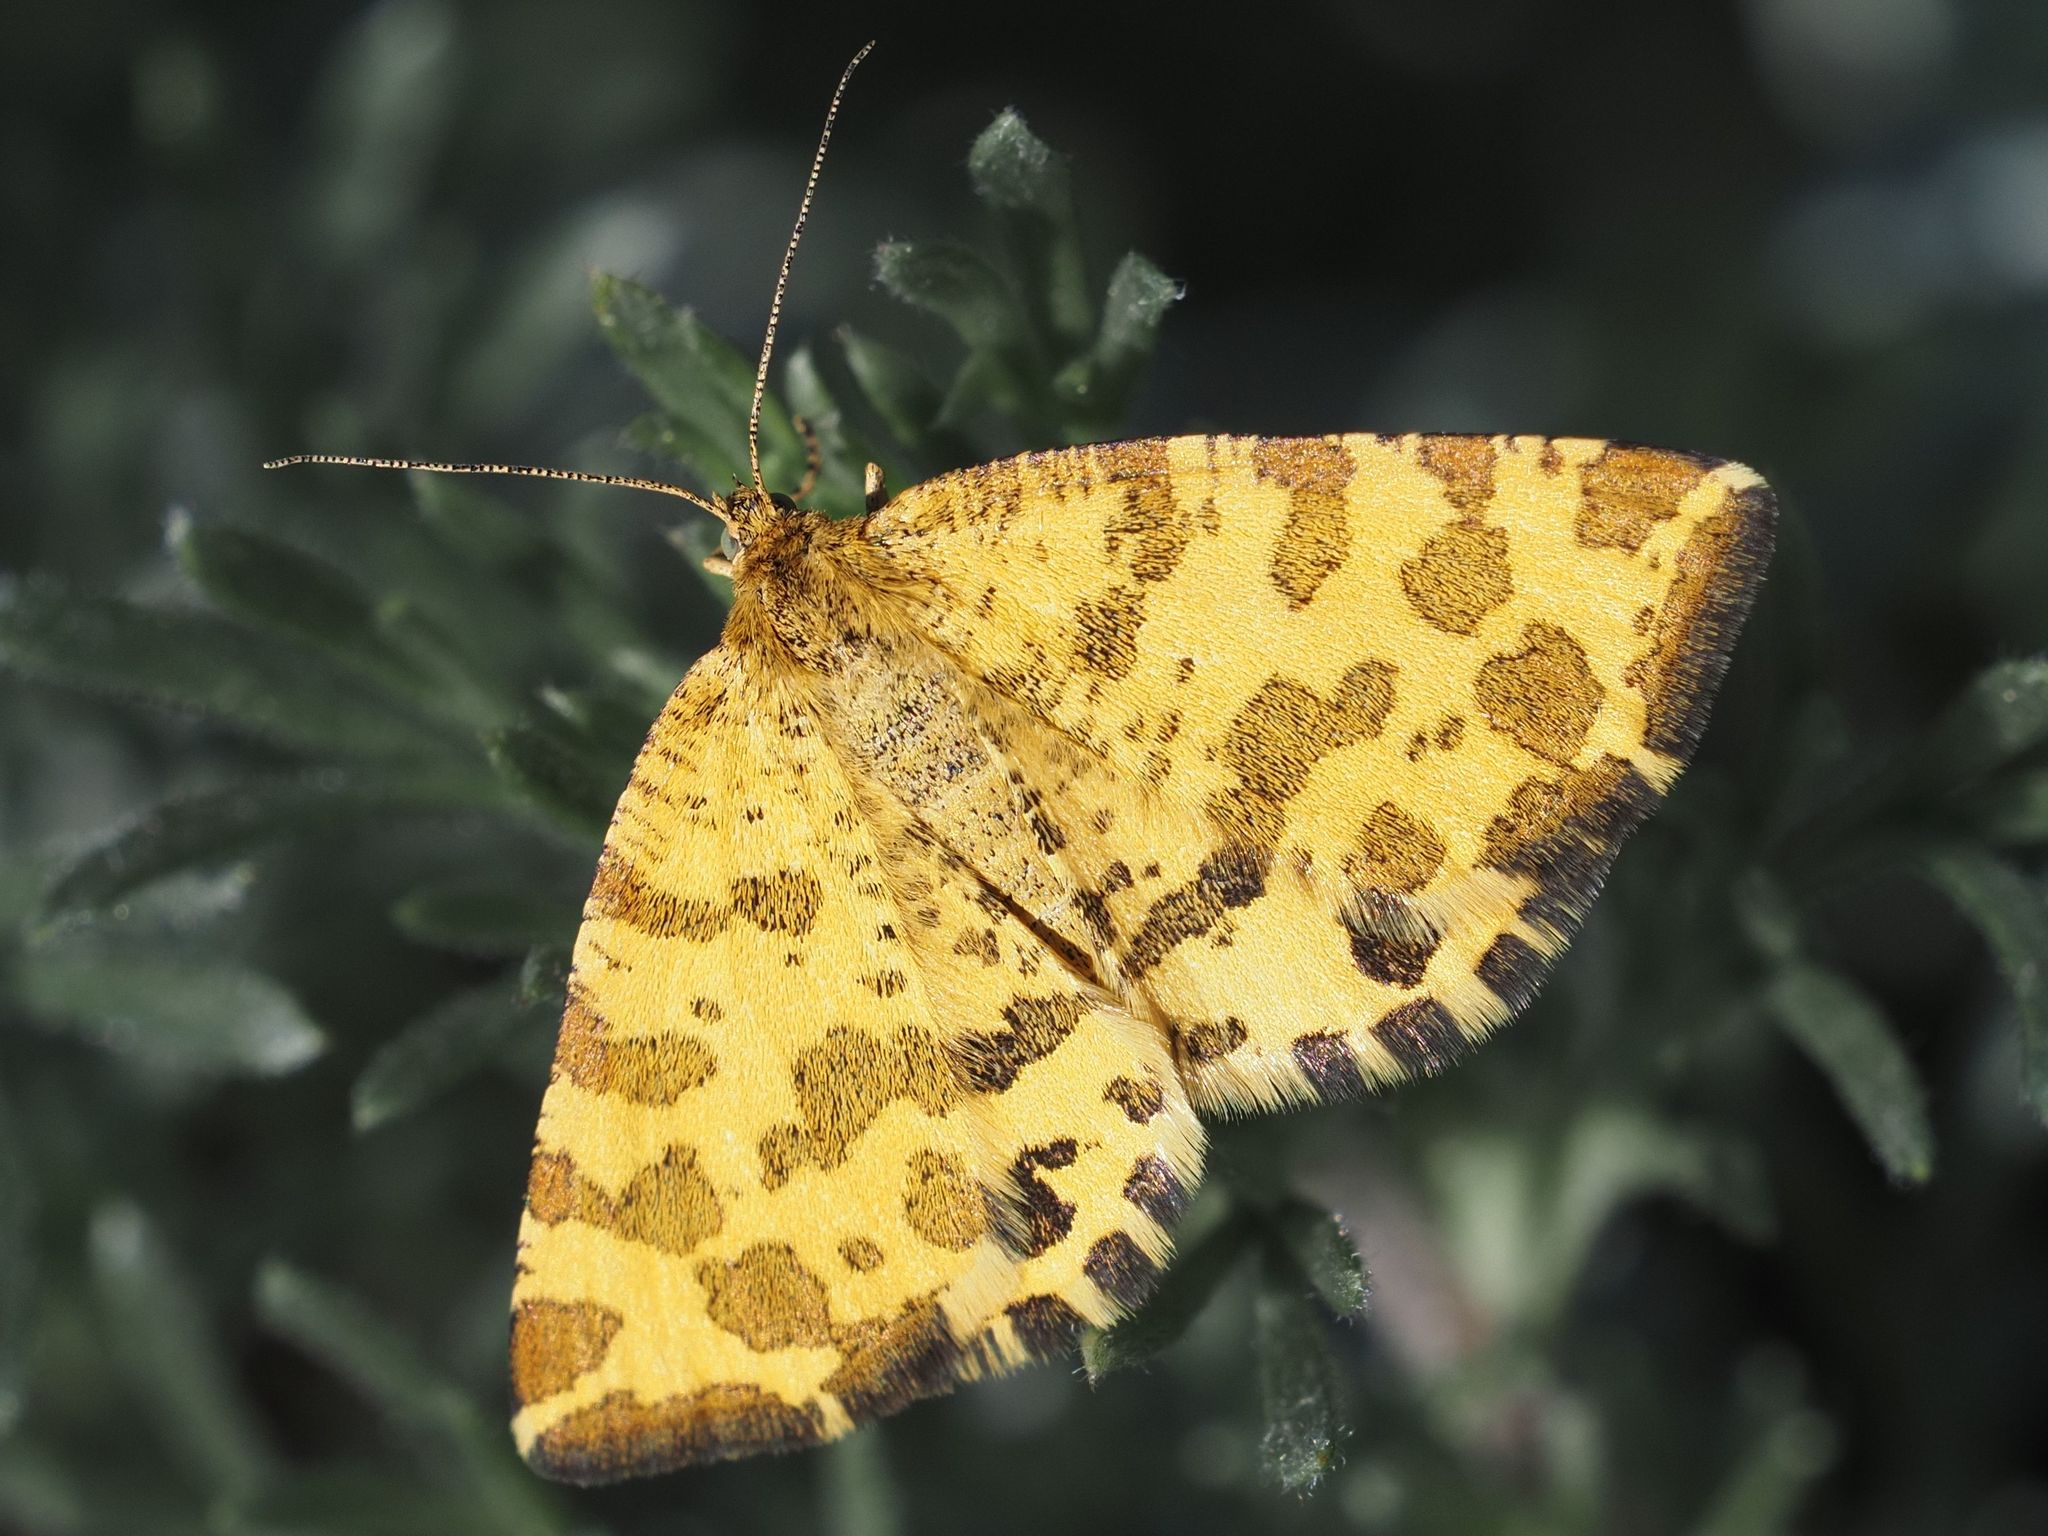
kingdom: Animalia
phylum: Arthropoda
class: Insecta
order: Lepidoptera
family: Geometridae
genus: Pseudopanthera
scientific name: Pseudopanthera macularia
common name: Speckled yellow
